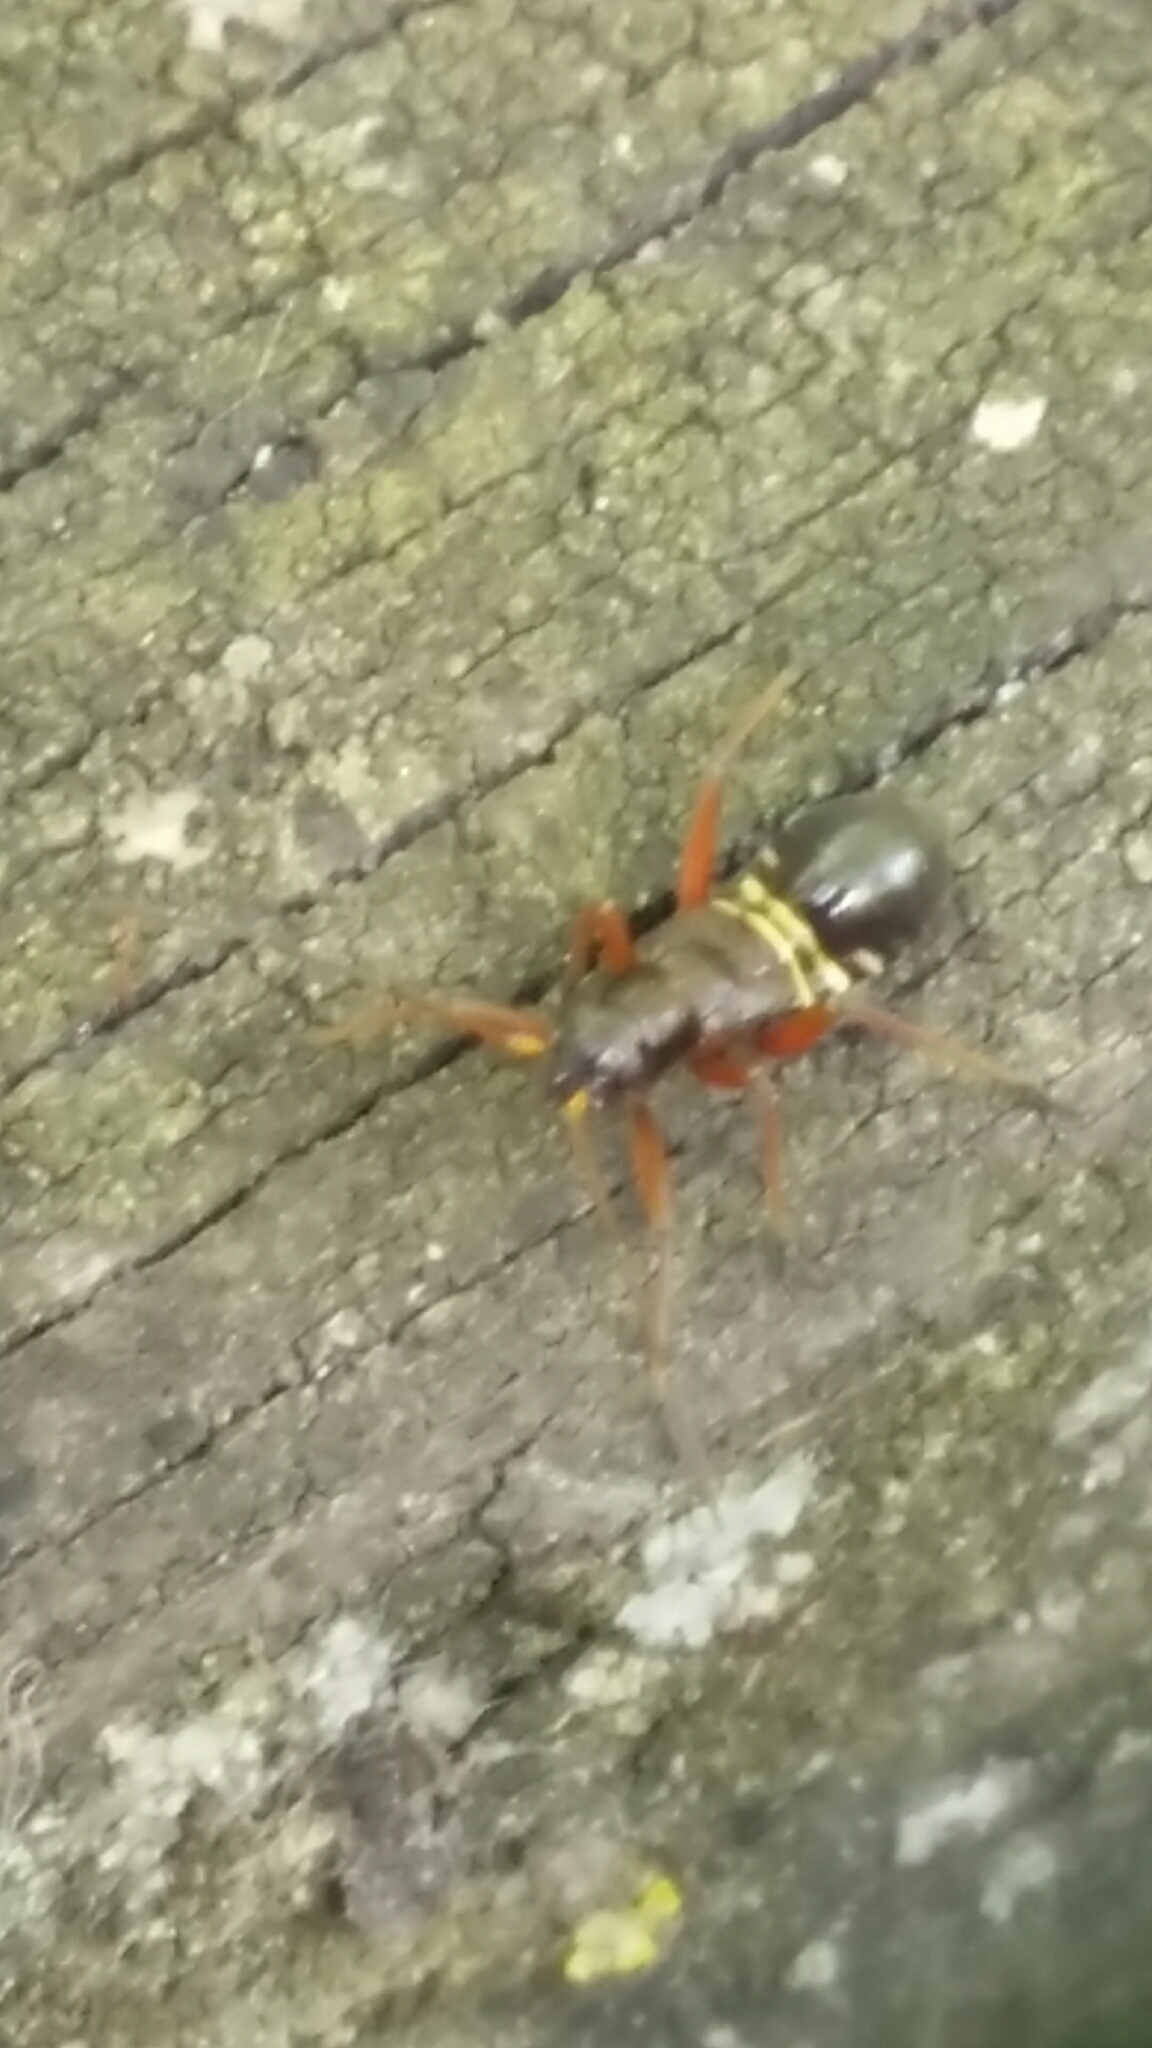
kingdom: Animalia
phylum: Arthropoda
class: Insecta
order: Hemiptera
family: Miridae
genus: Miris
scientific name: Miris striatus
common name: Fine streaked bugkin
